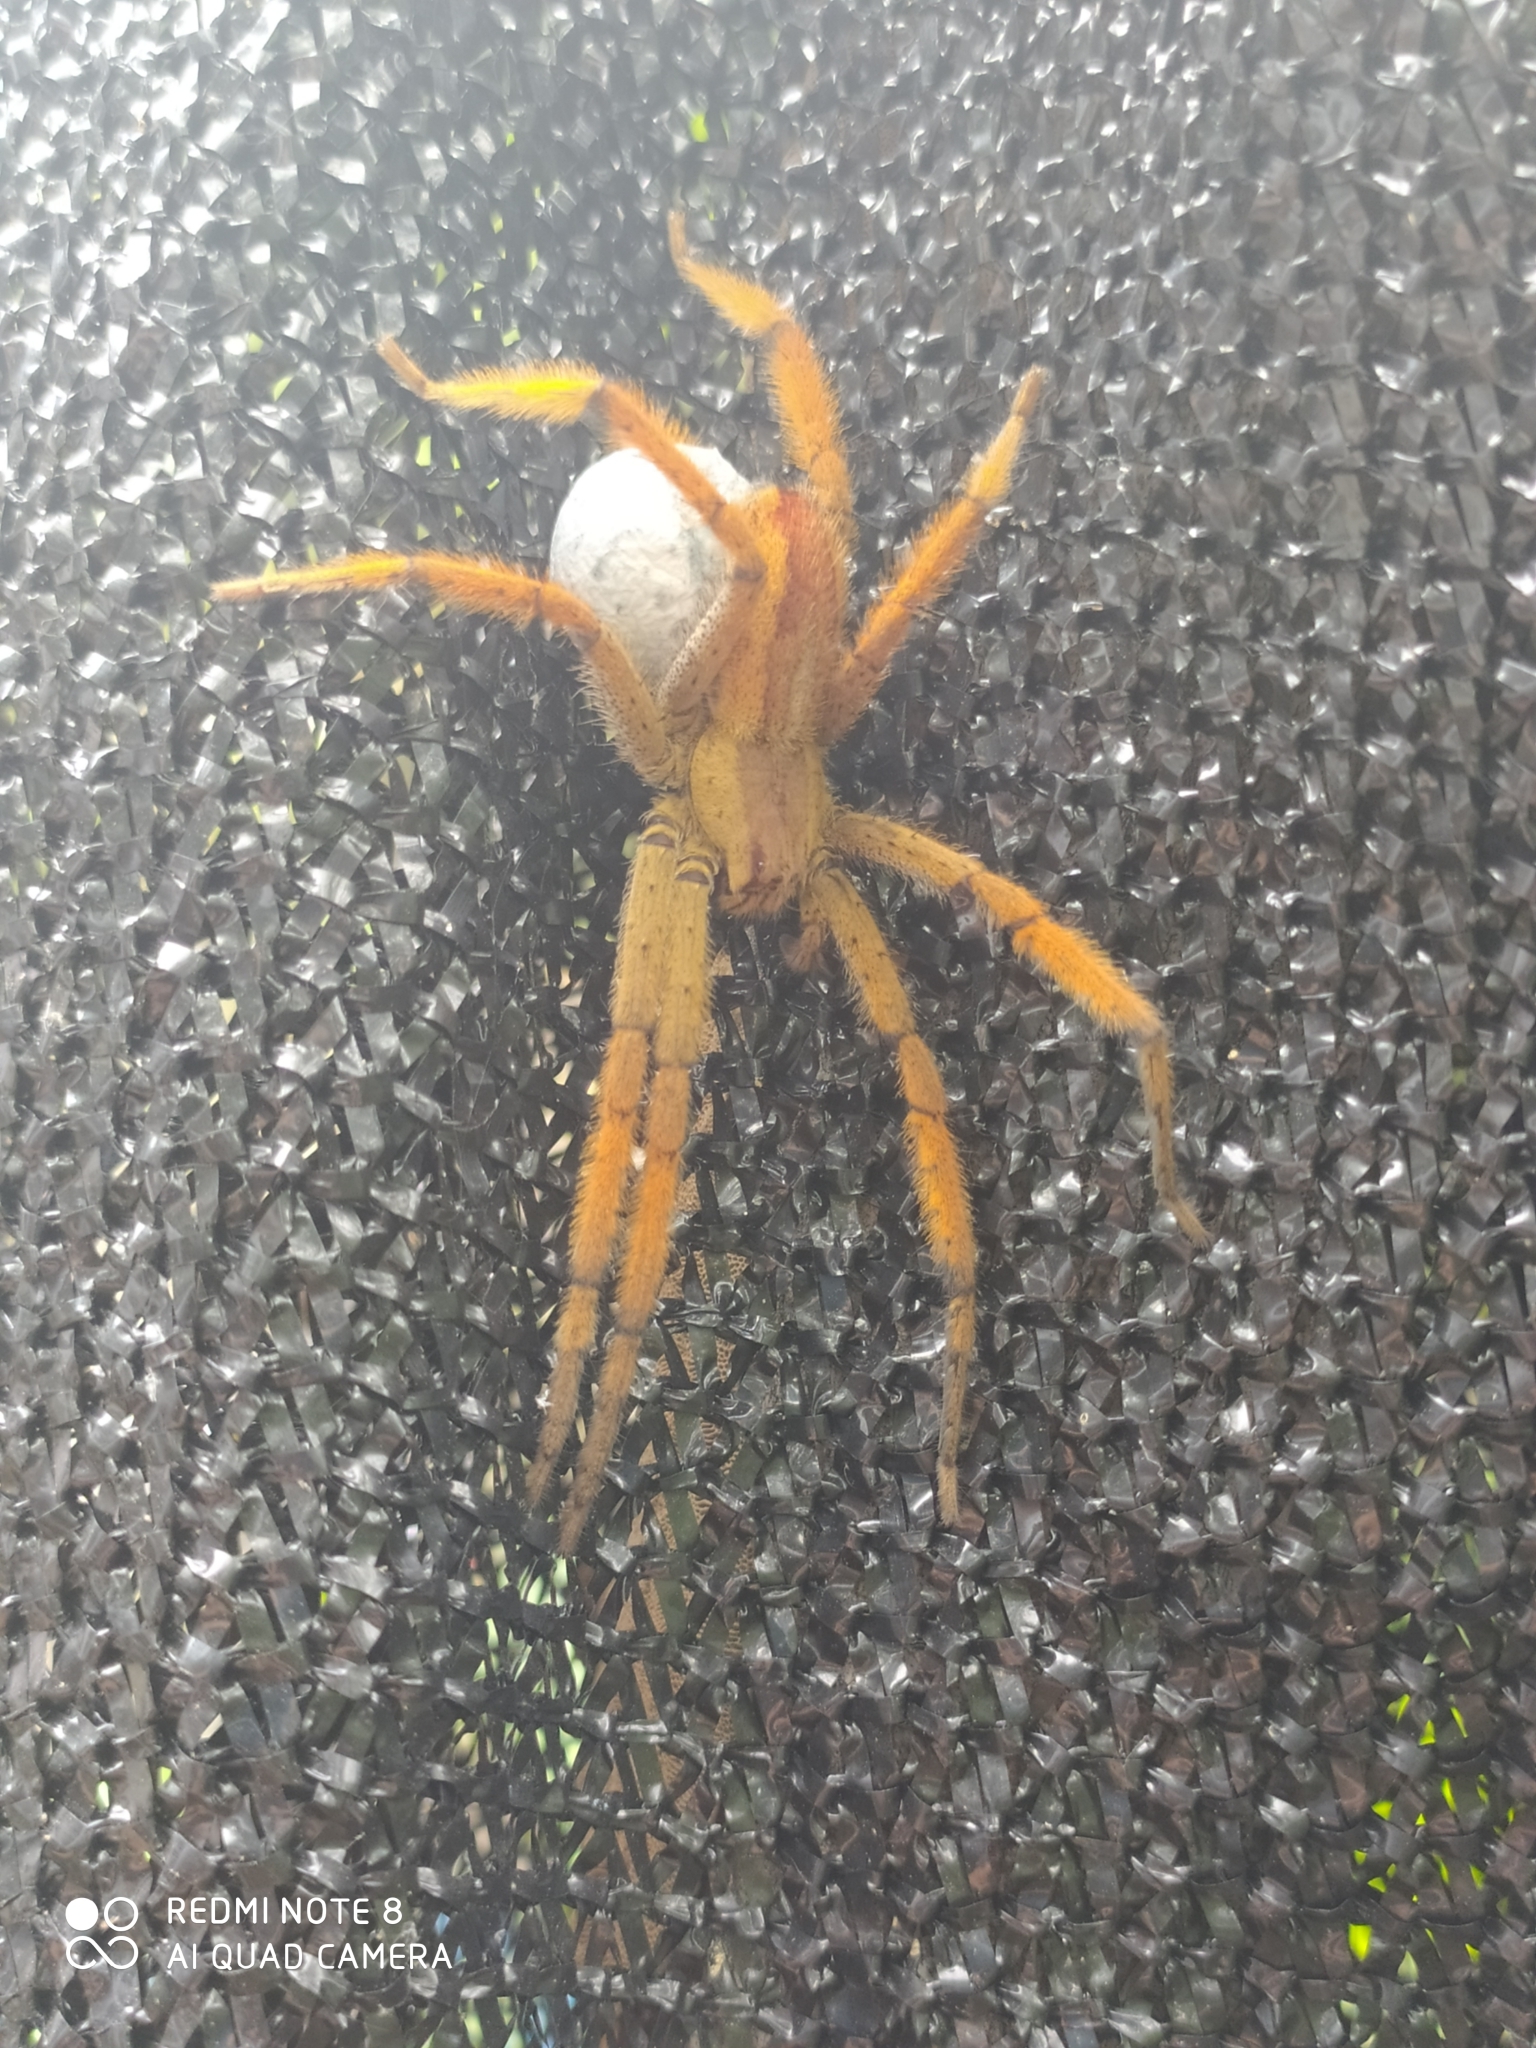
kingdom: Animalia
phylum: Arthropoda
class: Arachnida
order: Araneae
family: Trechaleidae
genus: Cupiennius
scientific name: Cupiennius getazi
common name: Wandering spiders
